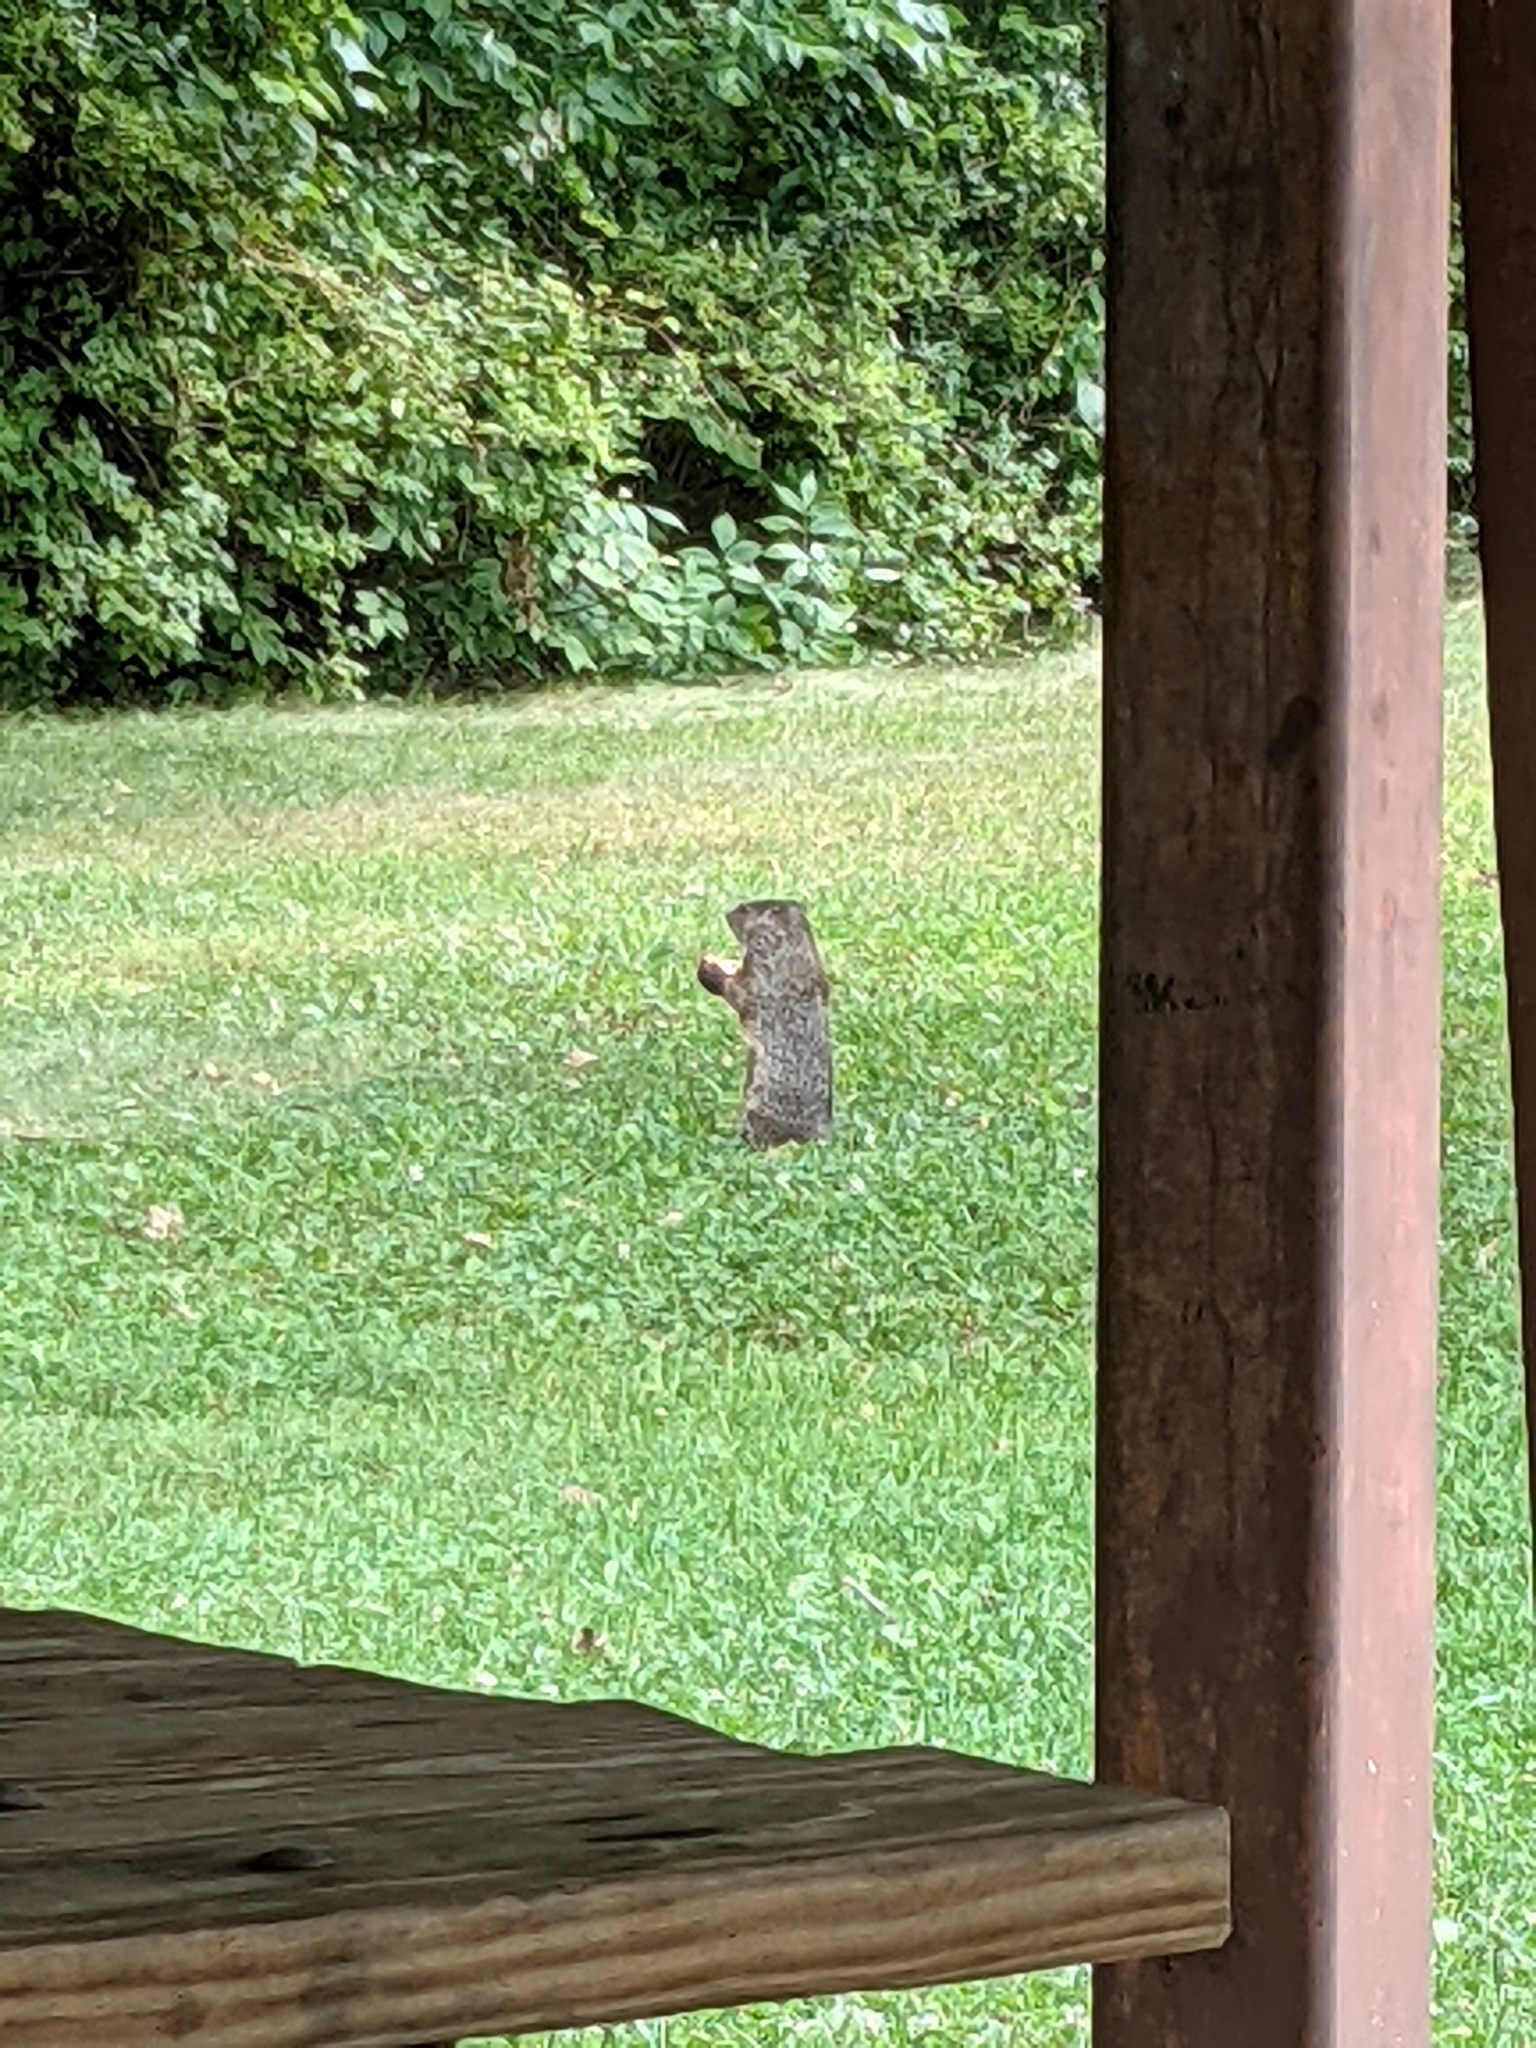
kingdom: Animalia
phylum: Chordata
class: Mammalia
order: Rodentia
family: Sciuridae
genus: Marmota
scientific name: Marmota monax
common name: Groundhog
